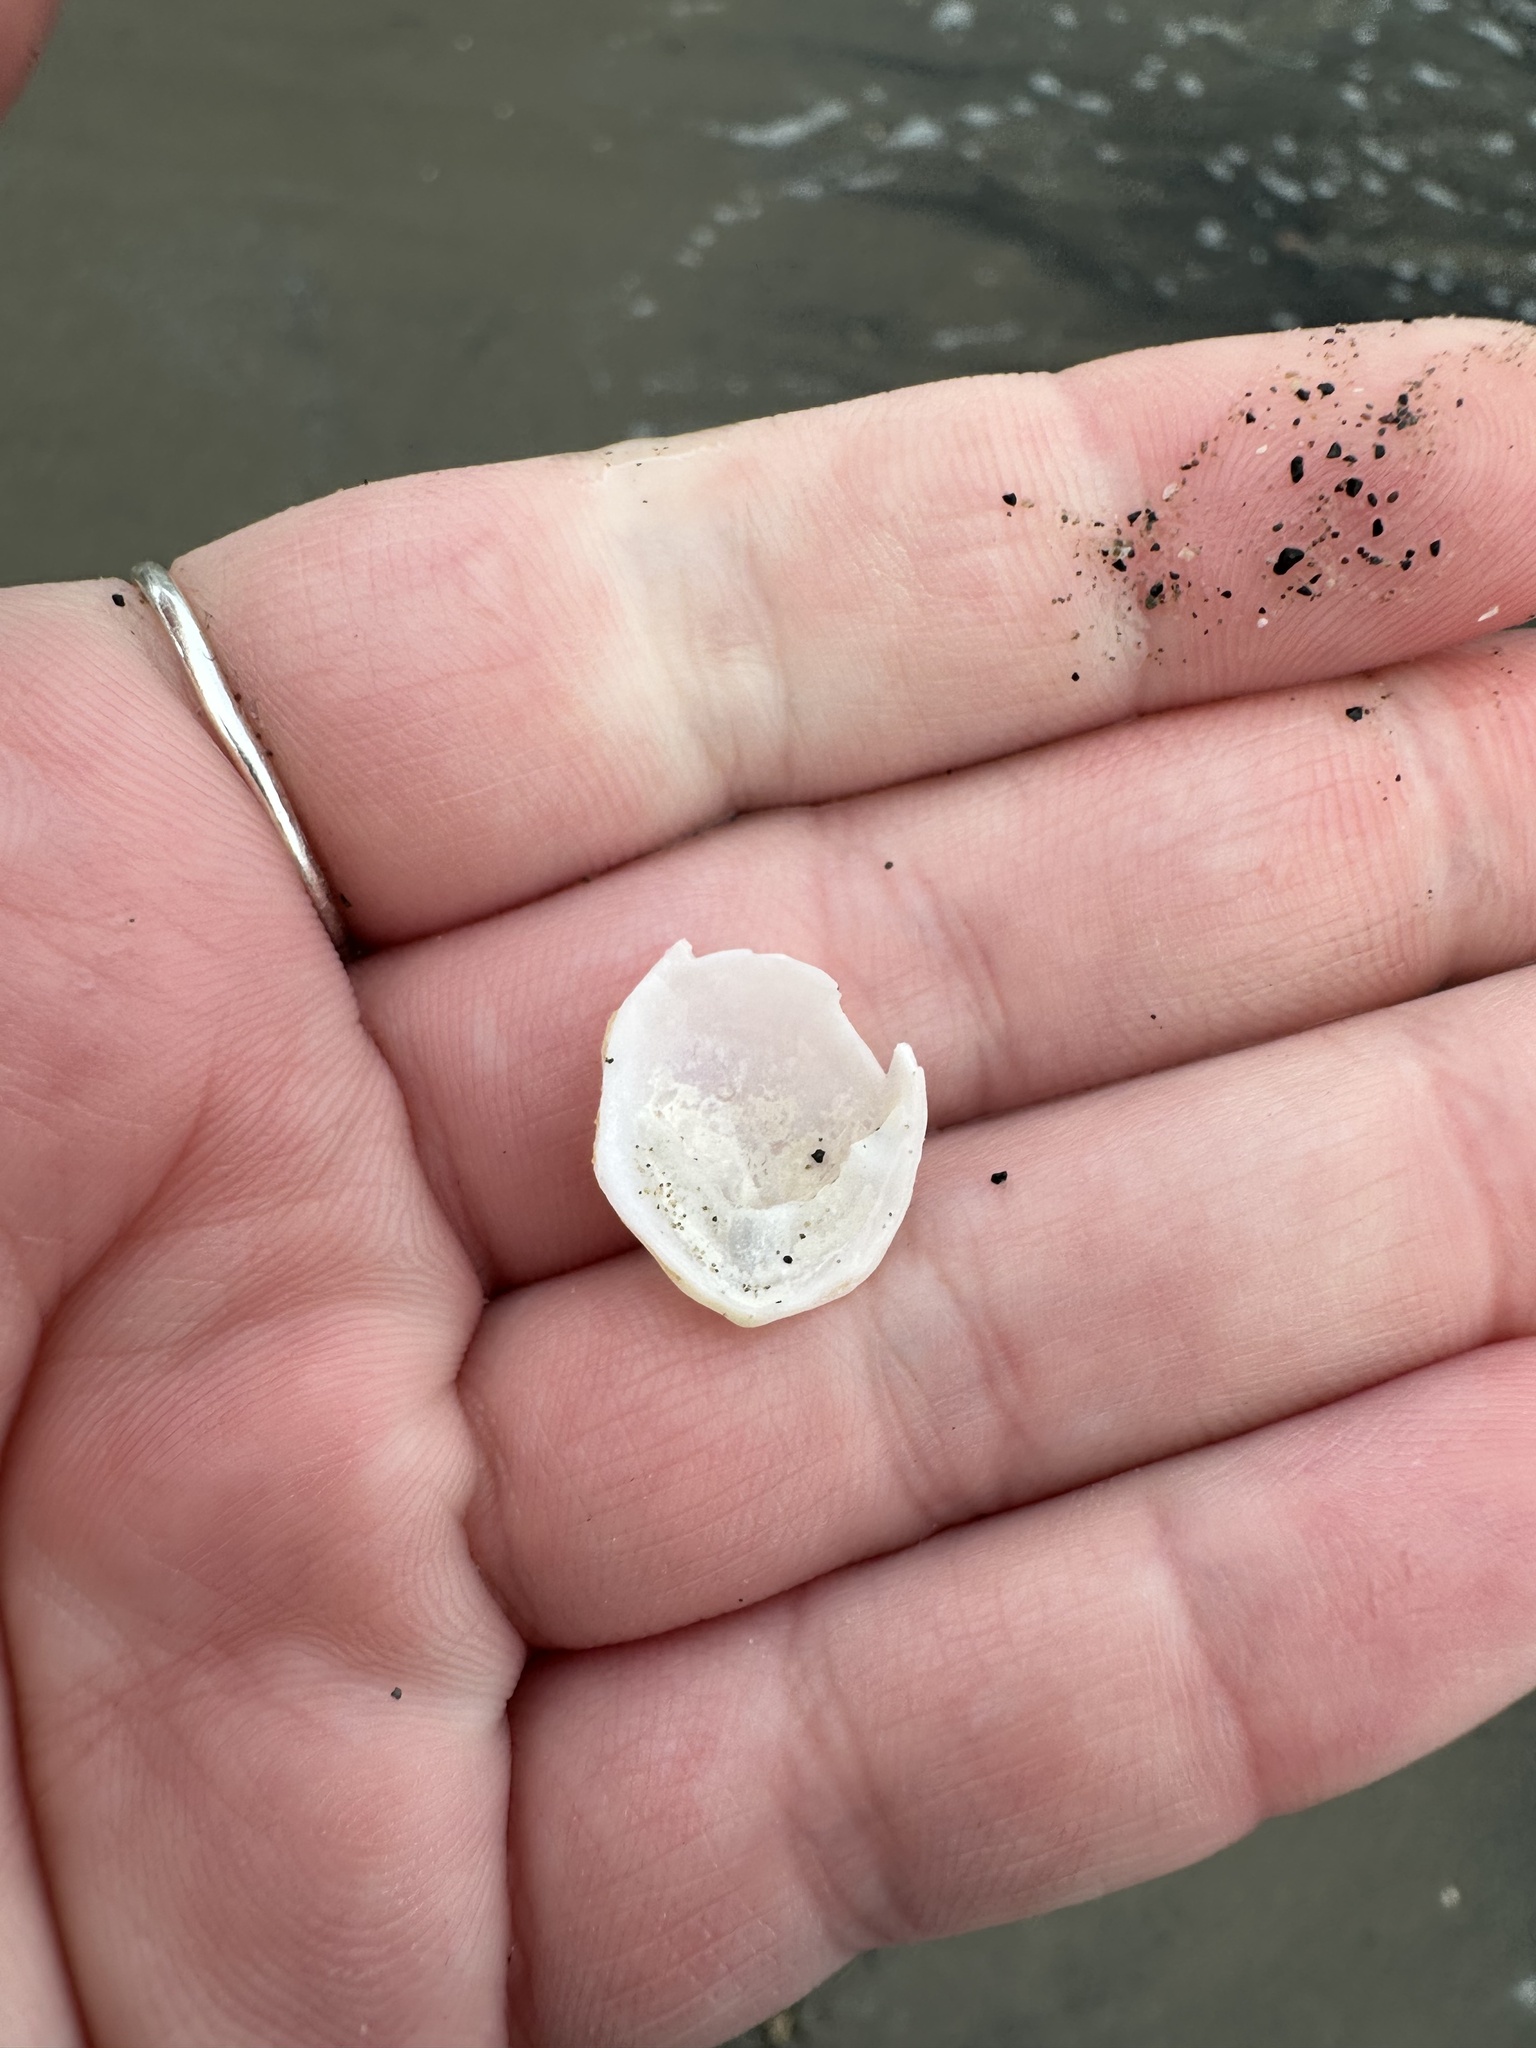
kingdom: Animalia
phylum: Mollusca
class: Gastropoda
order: Littorinimorpha
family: Calyptraeidae
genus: Crepidula
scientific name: Crepidula plana
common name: Eastern white slippersnail
